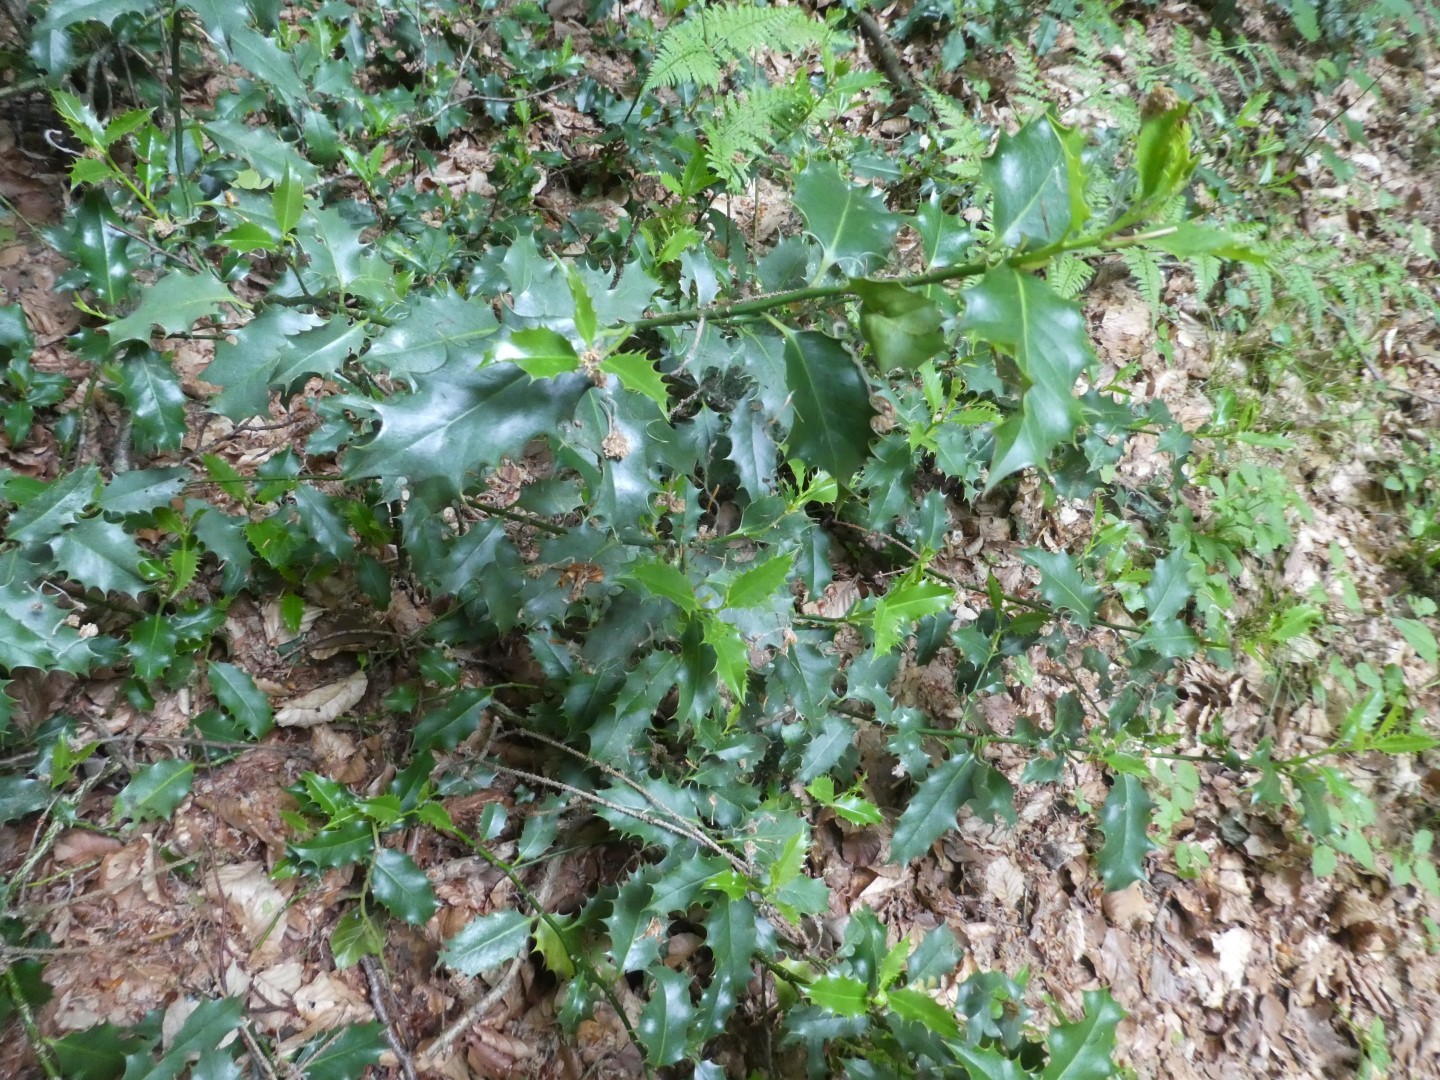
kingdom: Plantae
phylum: Tracheophyta
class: Magnoliopsida
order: Aquifoliales
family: Aquifoliaceae
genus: Ilex
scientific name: Ilex aquifolium
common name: English holly
